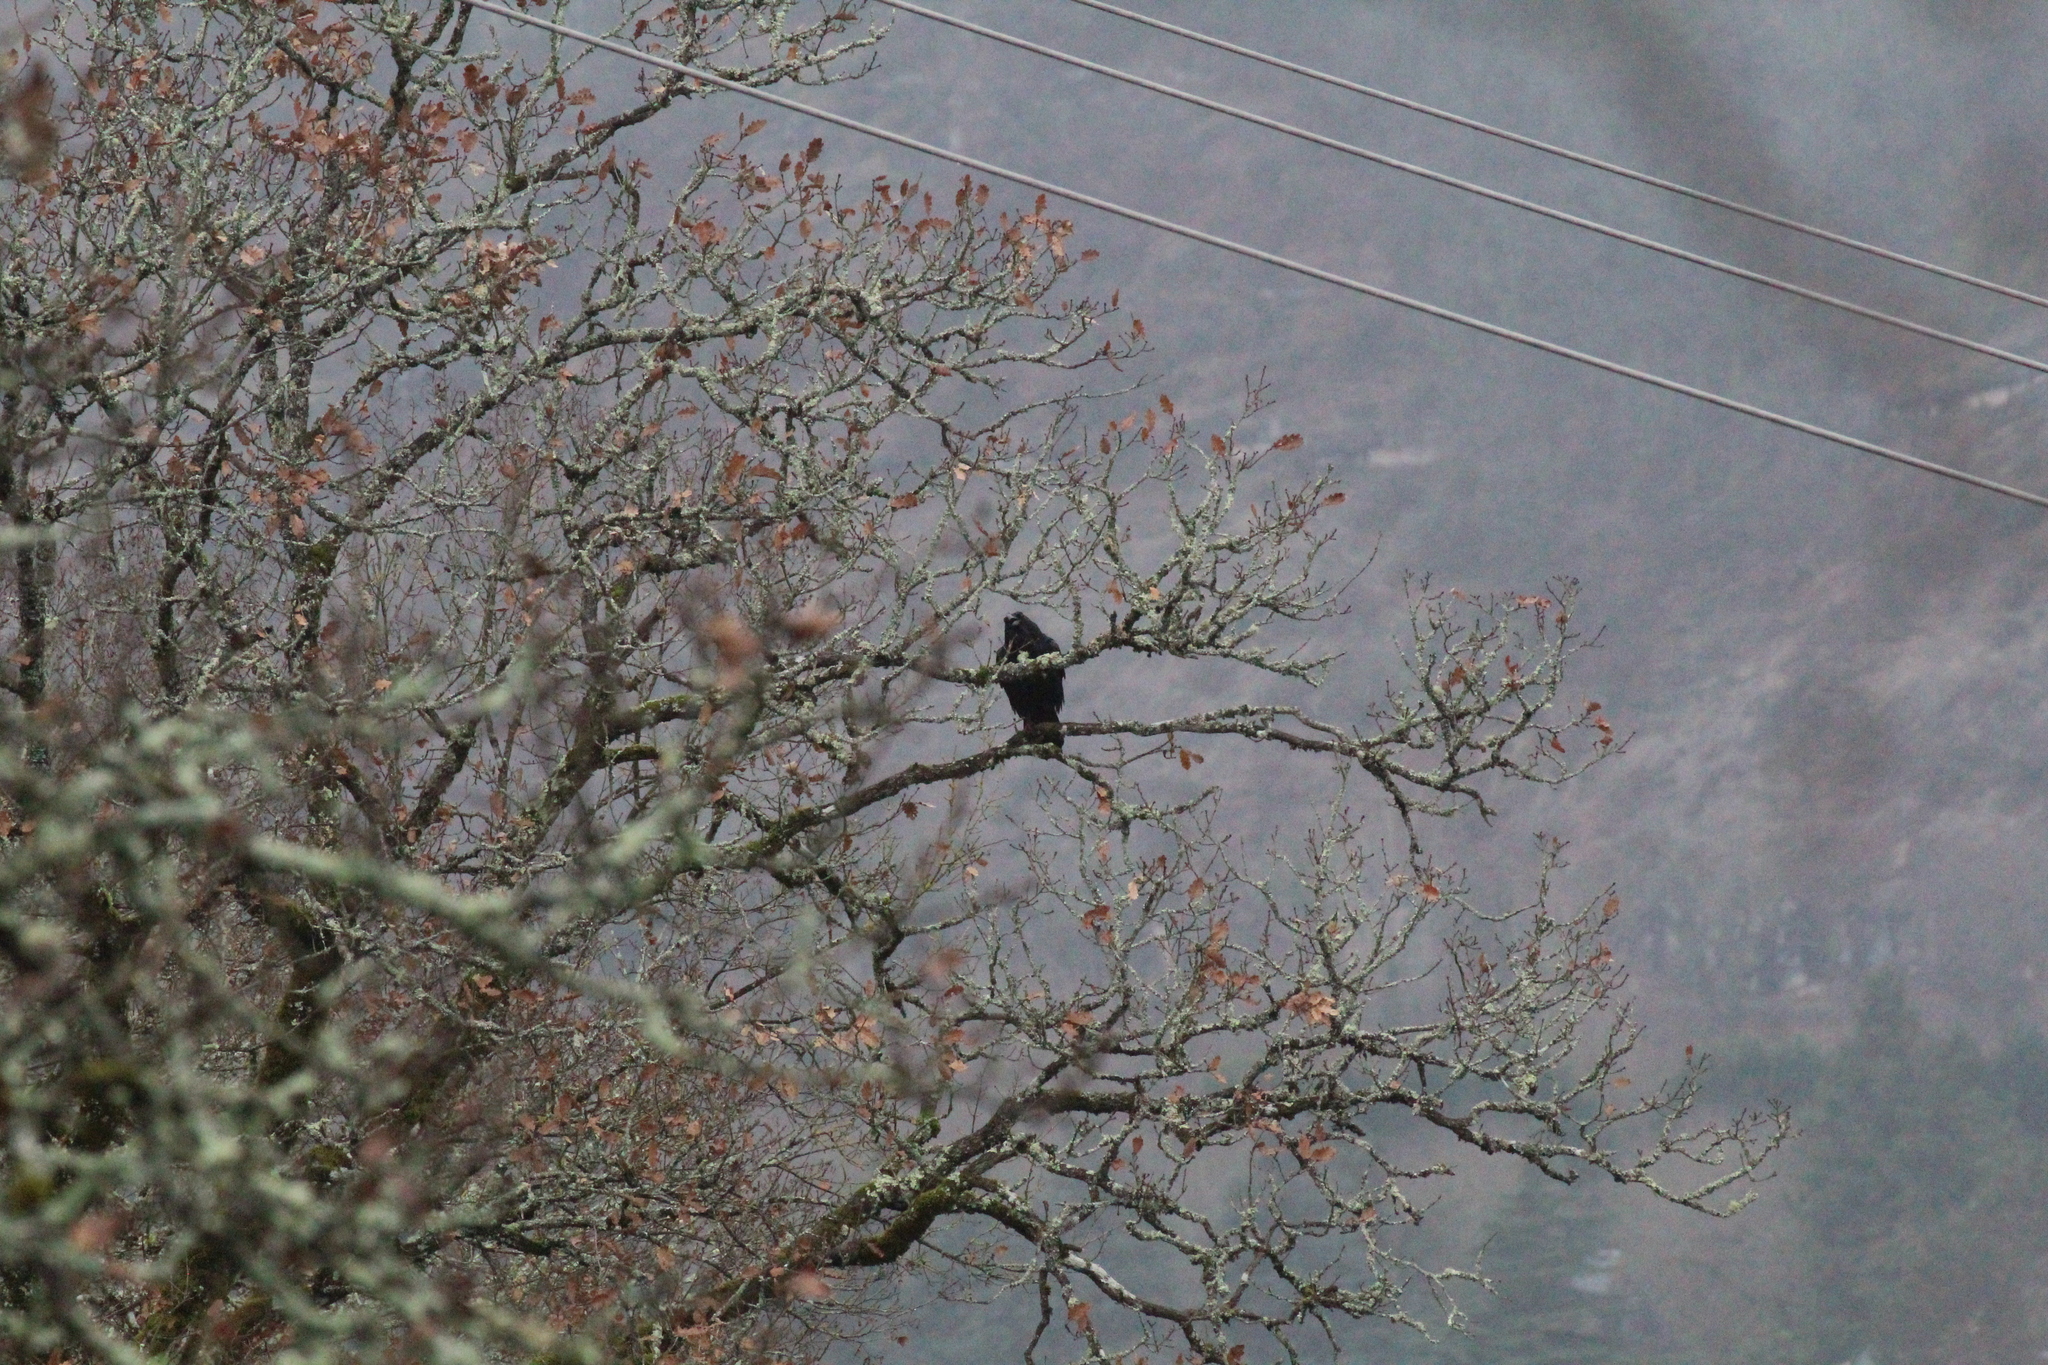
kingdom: Animalia
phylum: Chordata
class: Aves
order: Passeriformes
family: Corvidae
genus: Corvus
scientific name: Corvus corax
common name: Common raven
